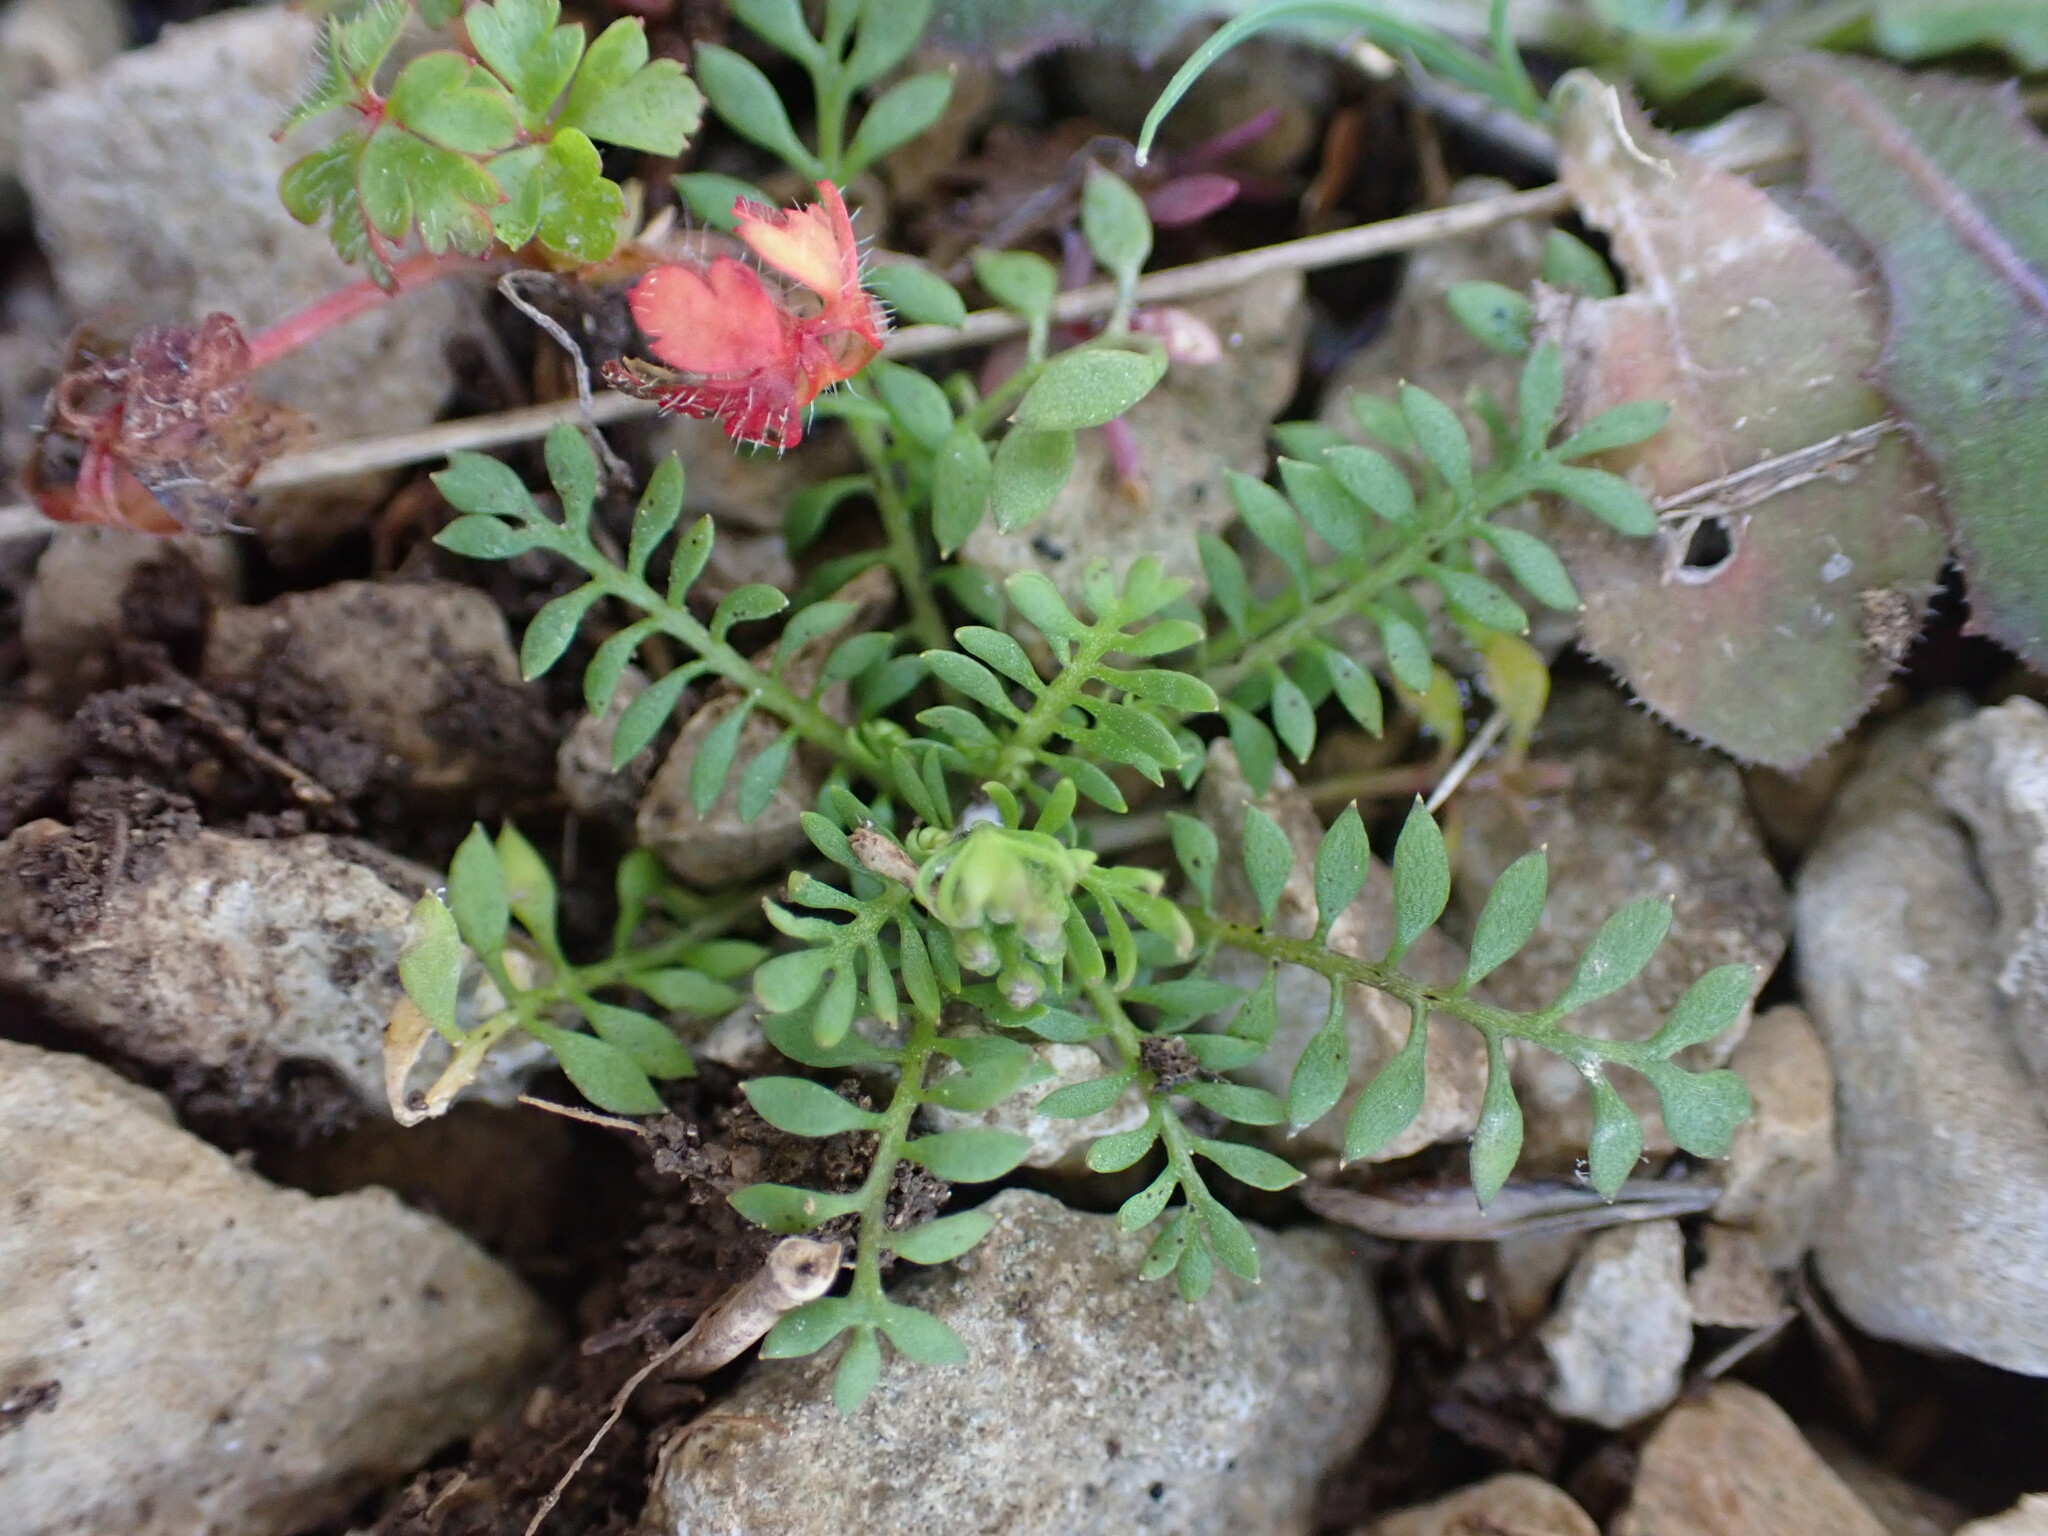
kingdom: Plantae
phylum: Tracheophyta
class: Magnoliopsida
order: Brassicales
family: Brassicaceae
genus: Hornungia
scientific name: Hornungia petraea
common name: Hutchinsia
